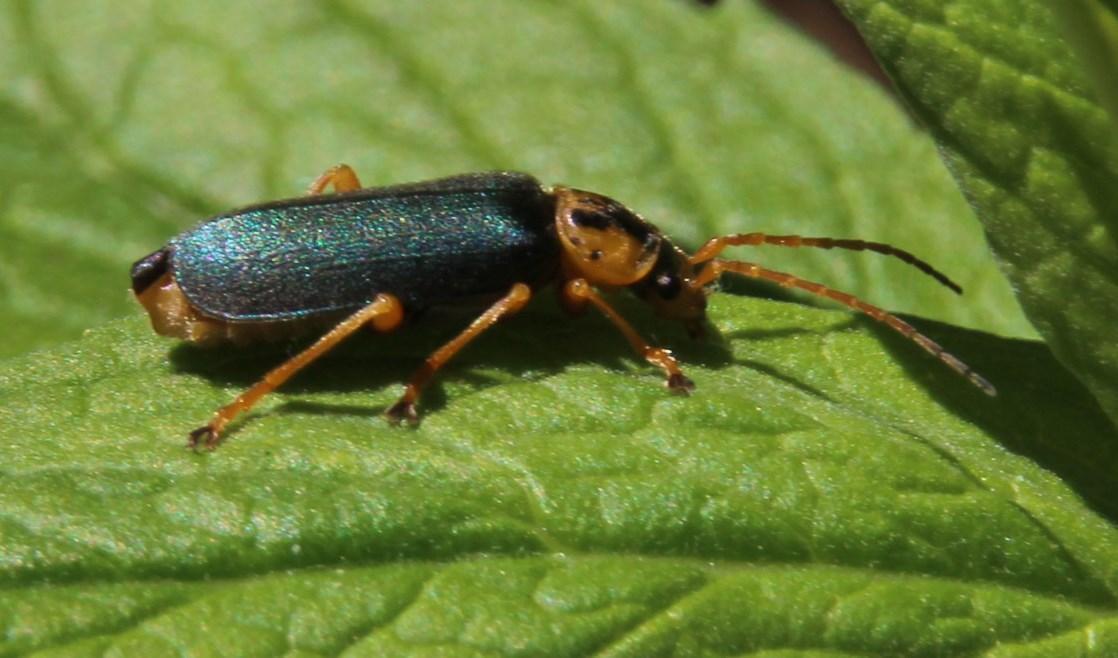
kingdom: Animalia
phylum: Arthropoda
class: Insecta
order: Coleoptera
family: Cantharidae
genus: Afronycha
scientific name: Afronycha
